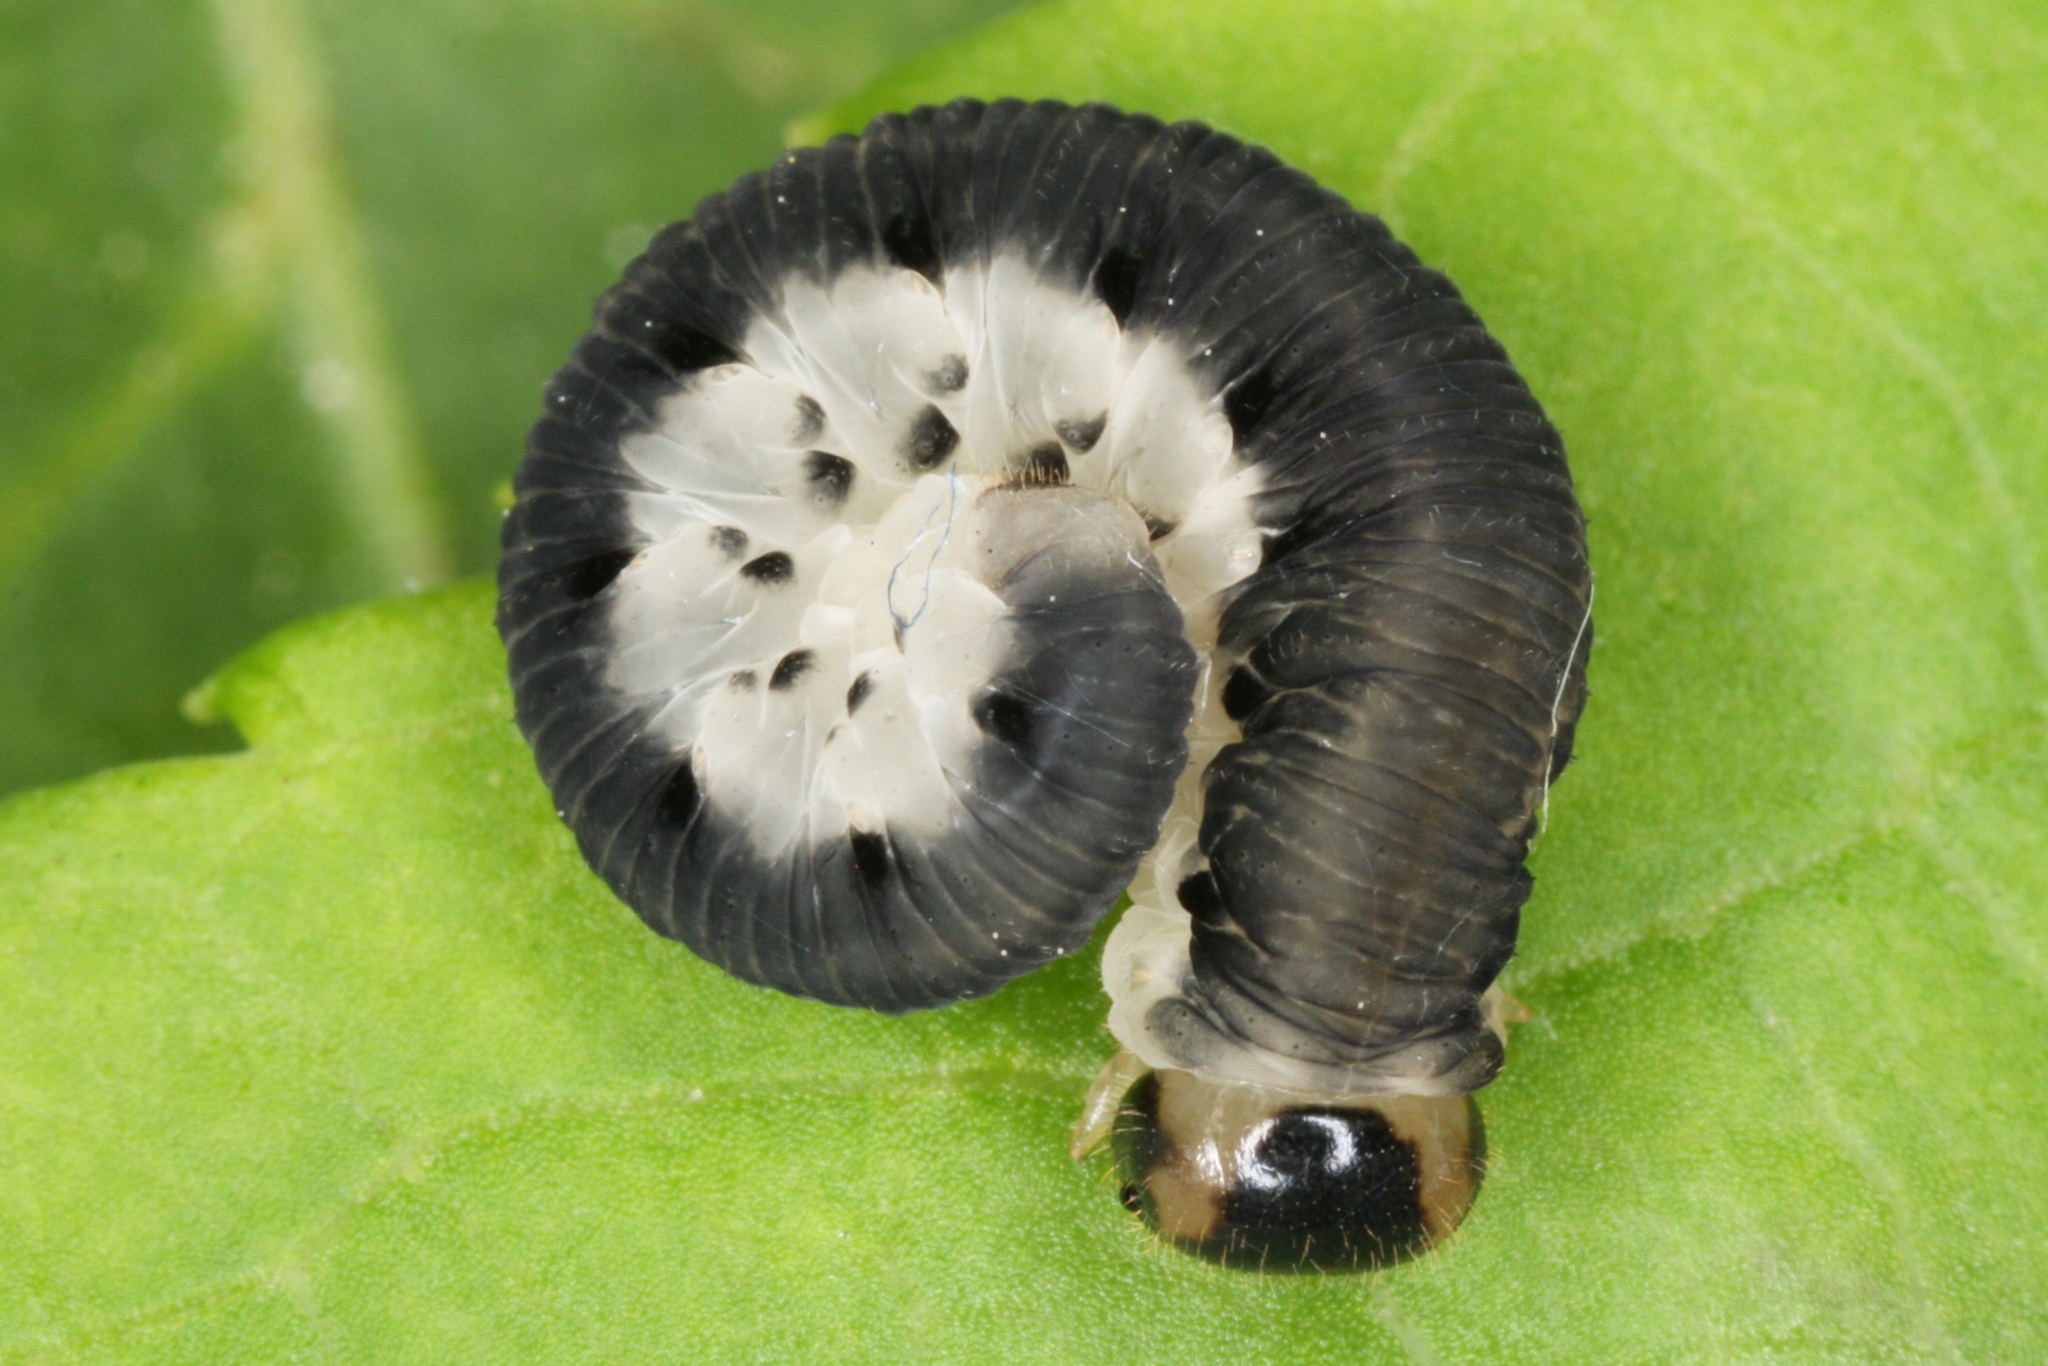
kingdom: Animalia
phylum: Arthropoda
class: Insecta
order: Hymenoptera
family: Tenthredinidae
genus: Macrophya
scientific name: Macrophya alboannulata
